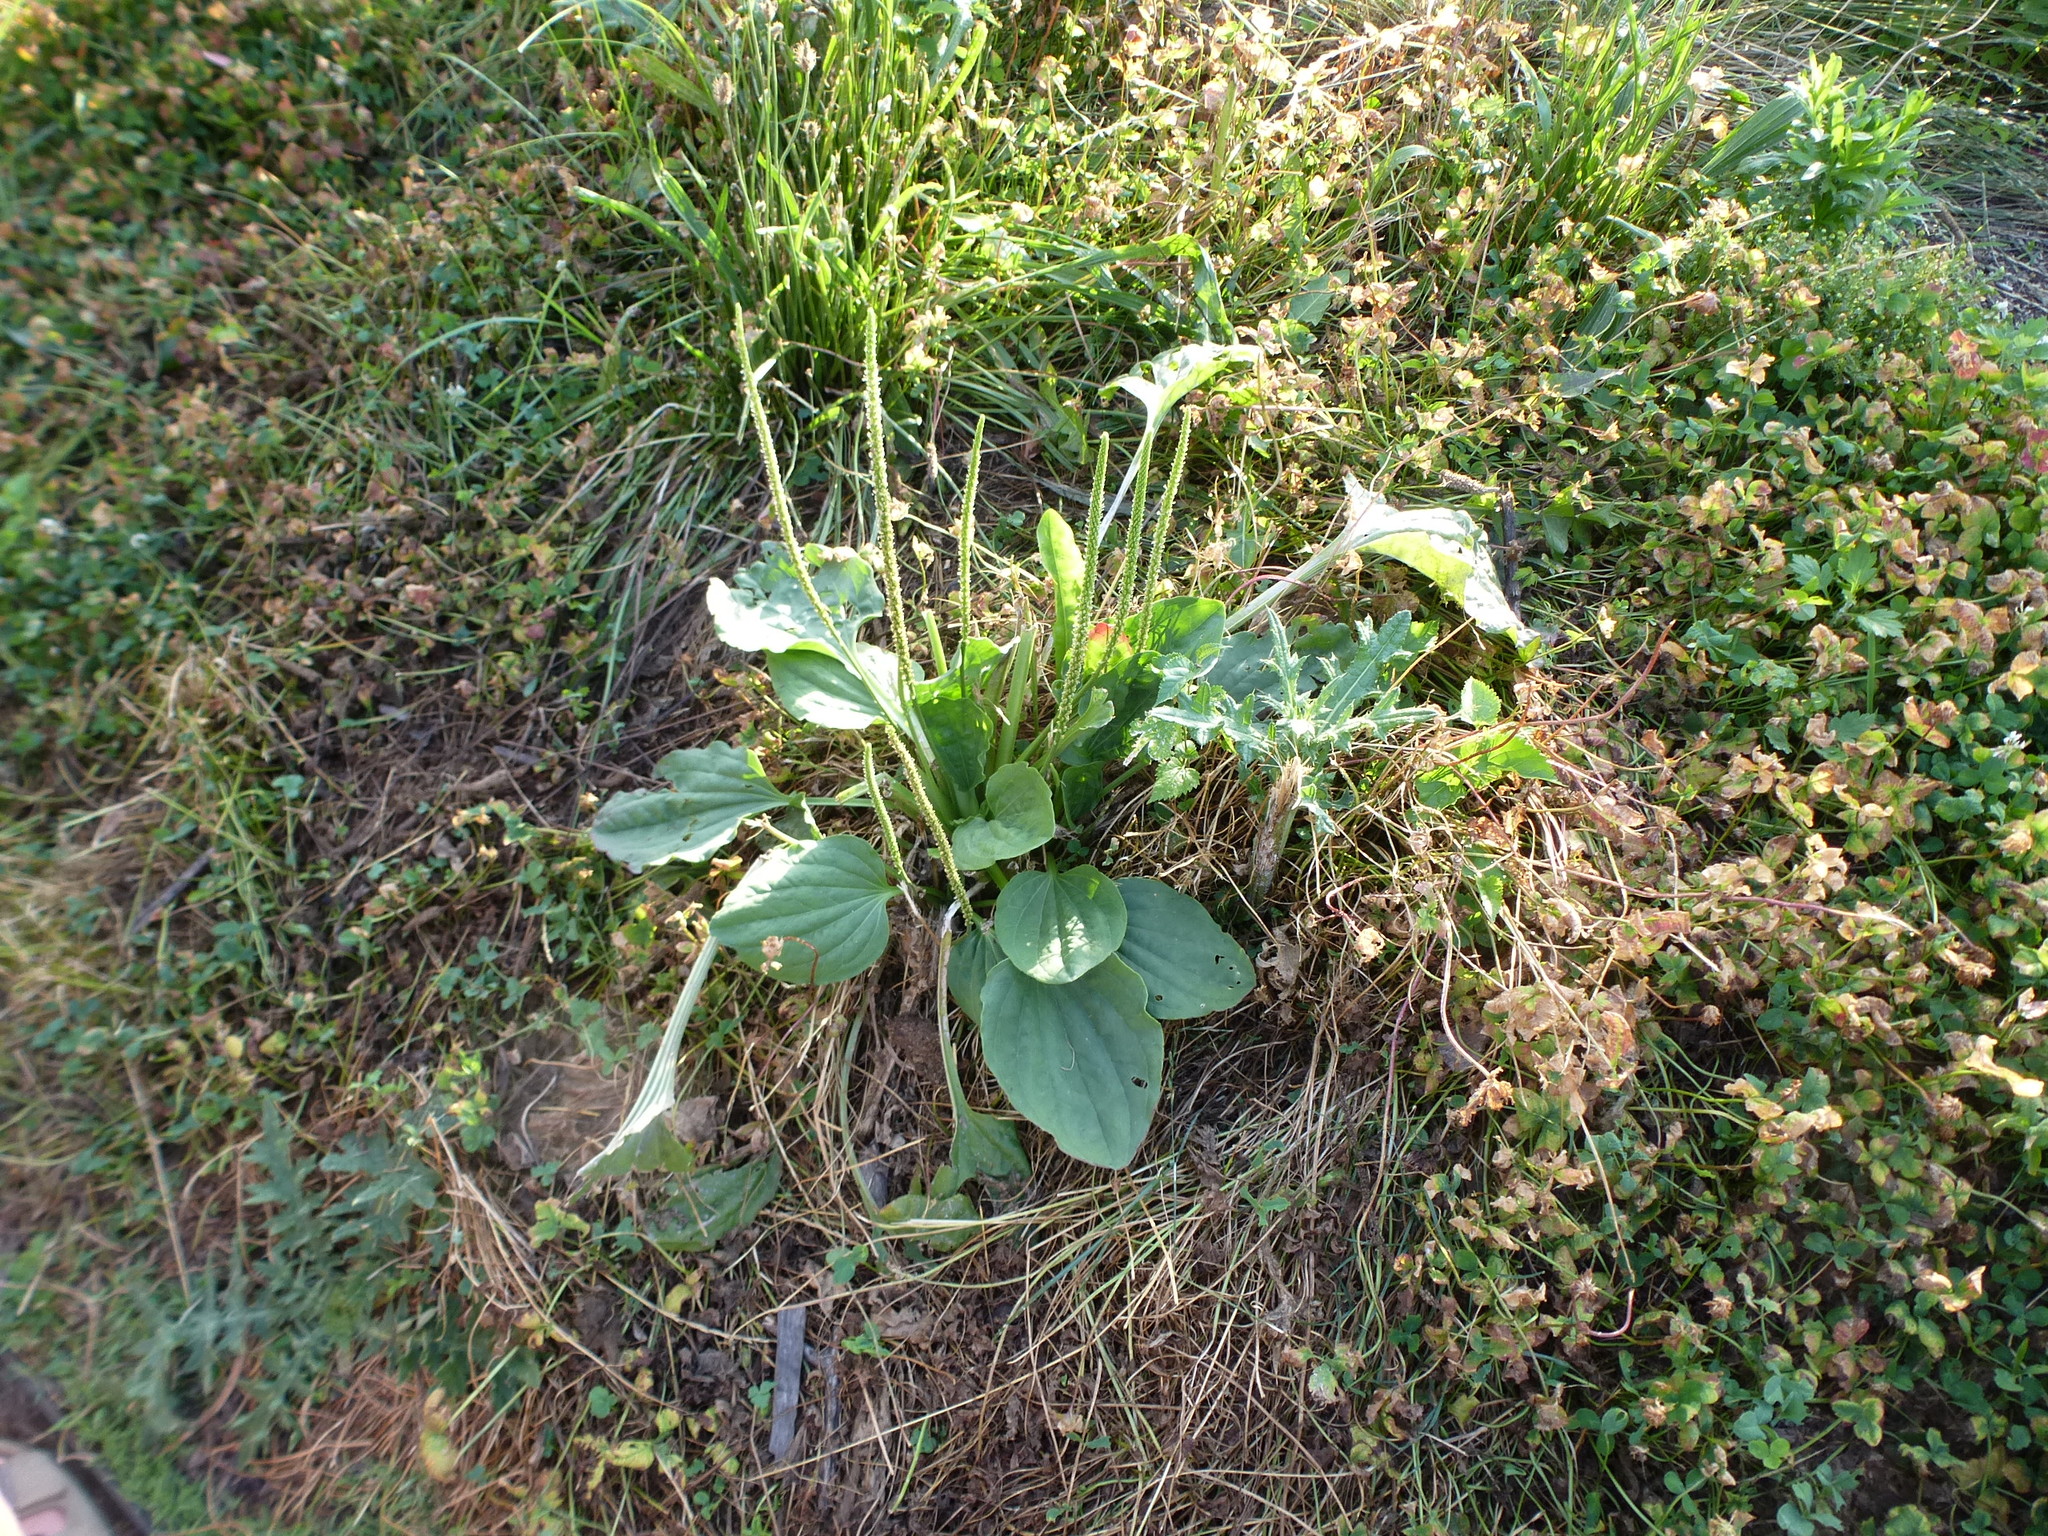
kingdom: Plantae
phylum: Tracheophyta
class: Magnoliopsida
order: Lamiales
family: Plantaginaceae
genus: Plantago
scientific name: Plantago major
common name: Common plantain
